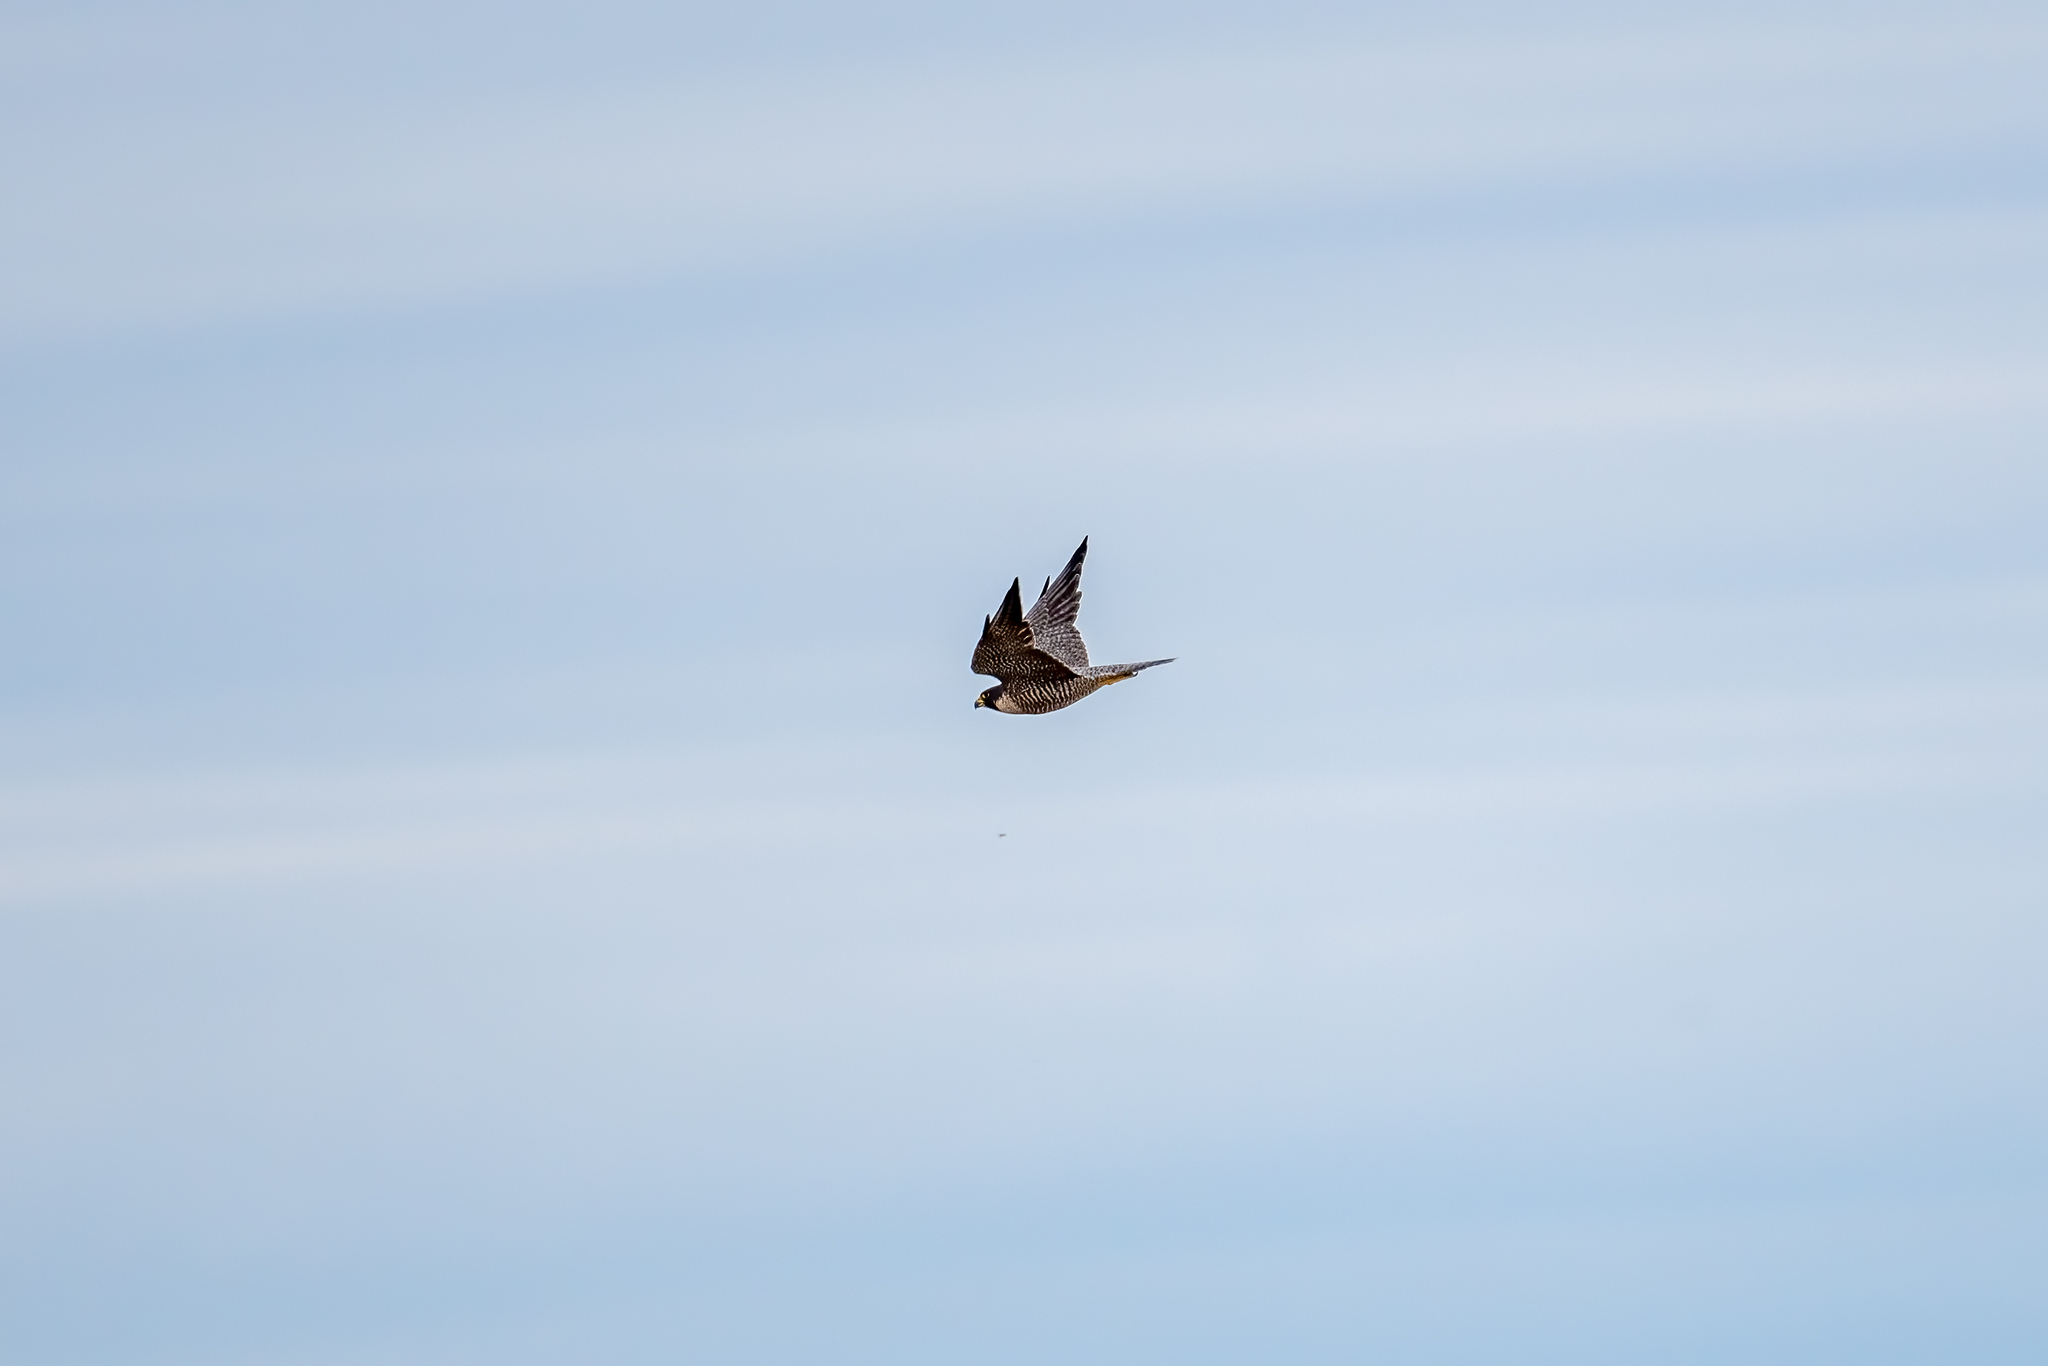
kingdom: Animalia
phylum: Chordata
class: Aves
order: Falconiformes
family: Falconidae
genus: Falco
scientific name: Falco peregrinus
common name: Peregrine falcon
